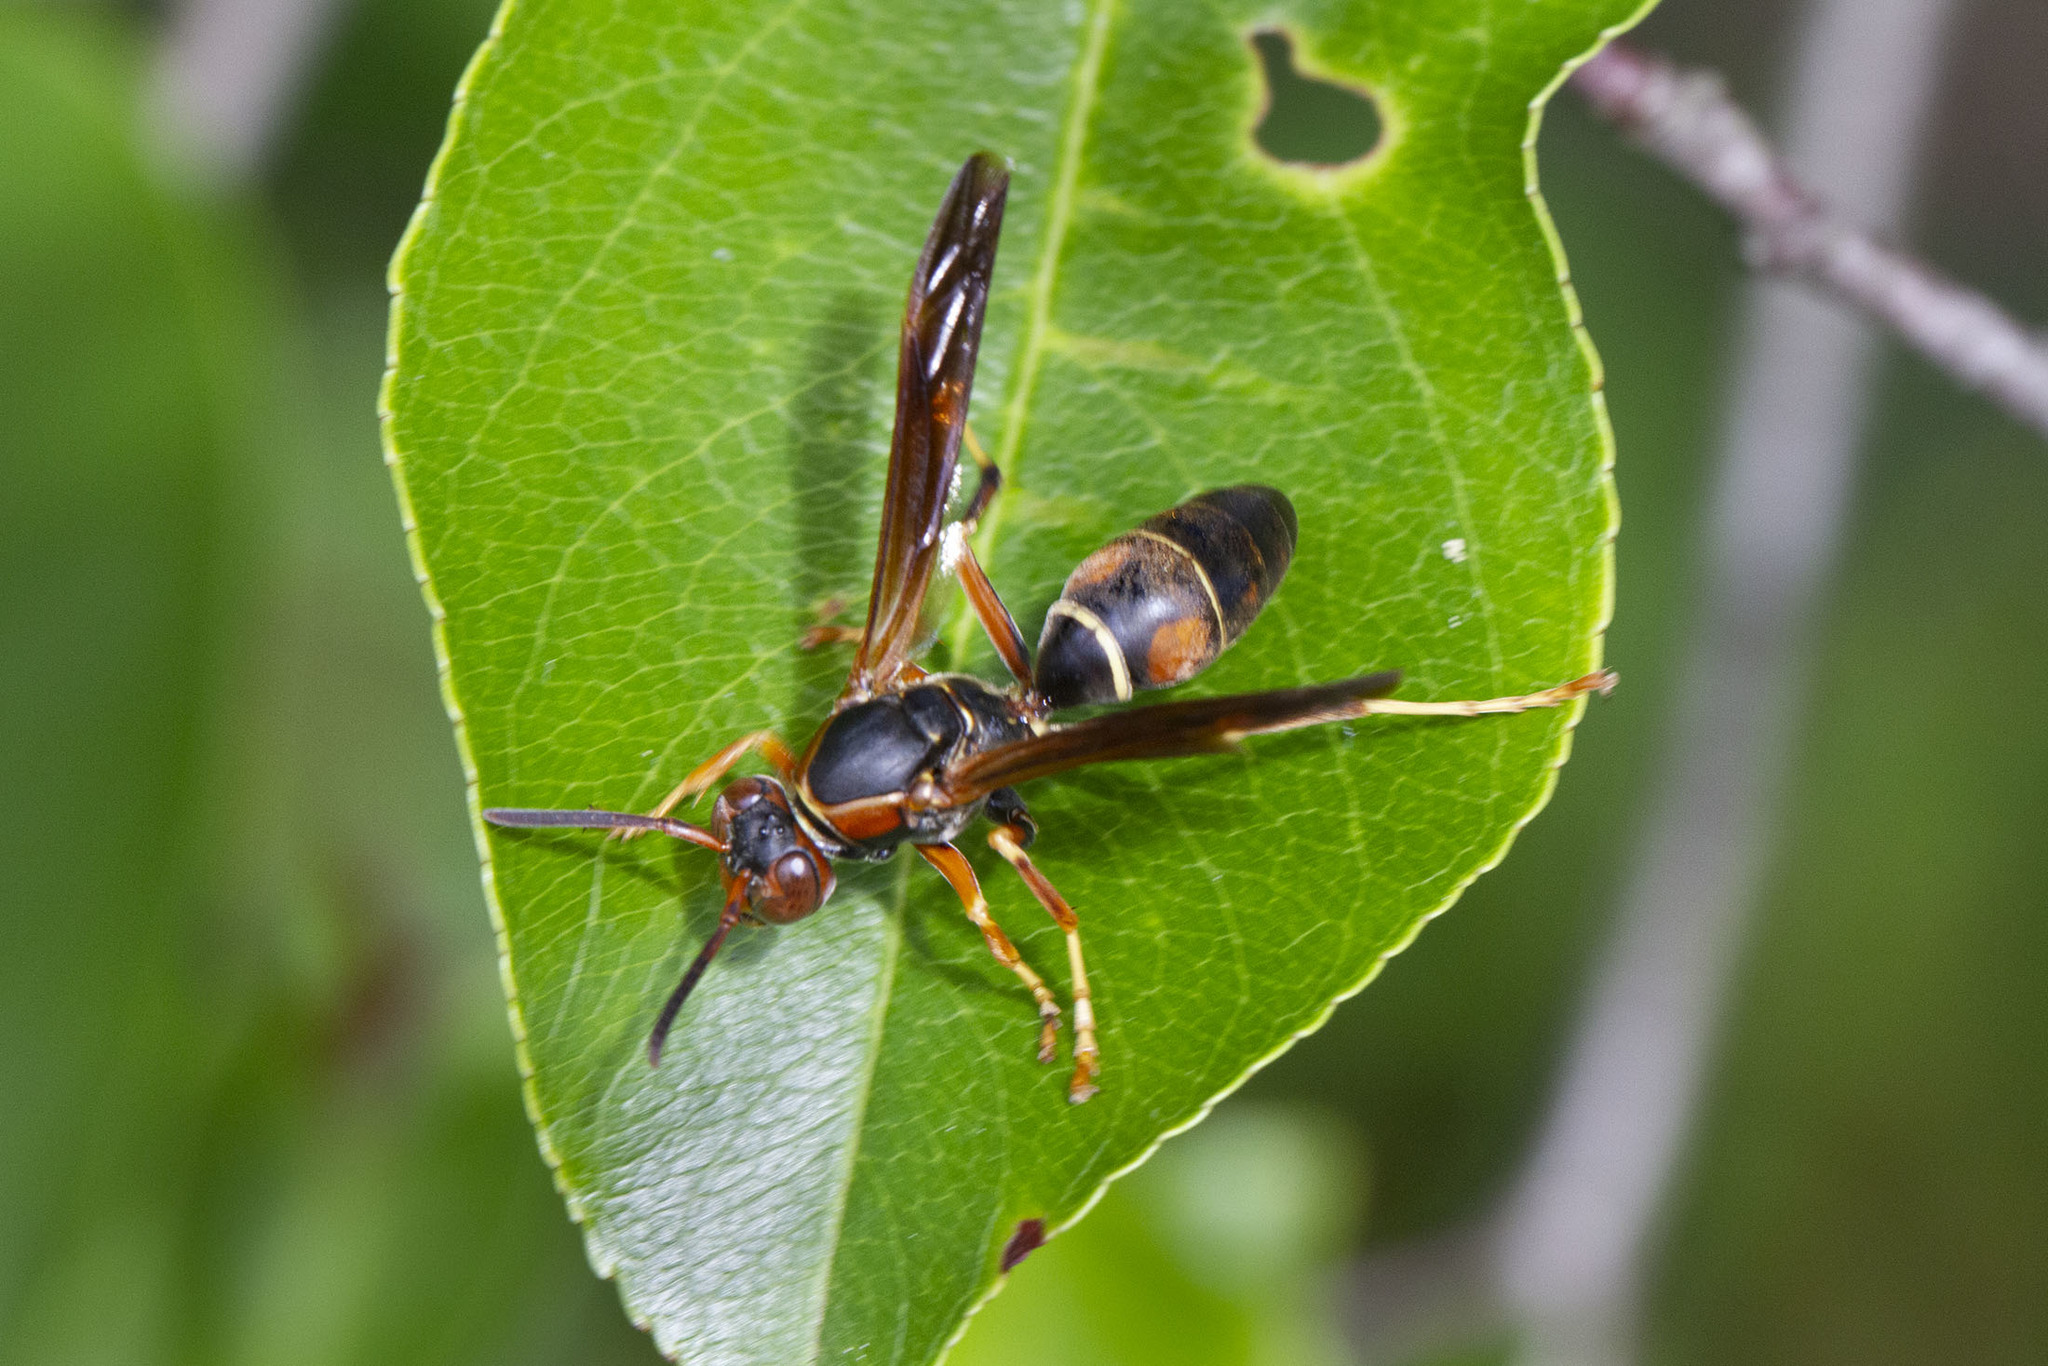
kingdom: Animalia
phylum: Arthropoda
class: Insecta
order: Hymenoptera
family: Eumenidae
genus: Polistes
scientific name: Polistes fuscatus
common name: Dark paper wasp
